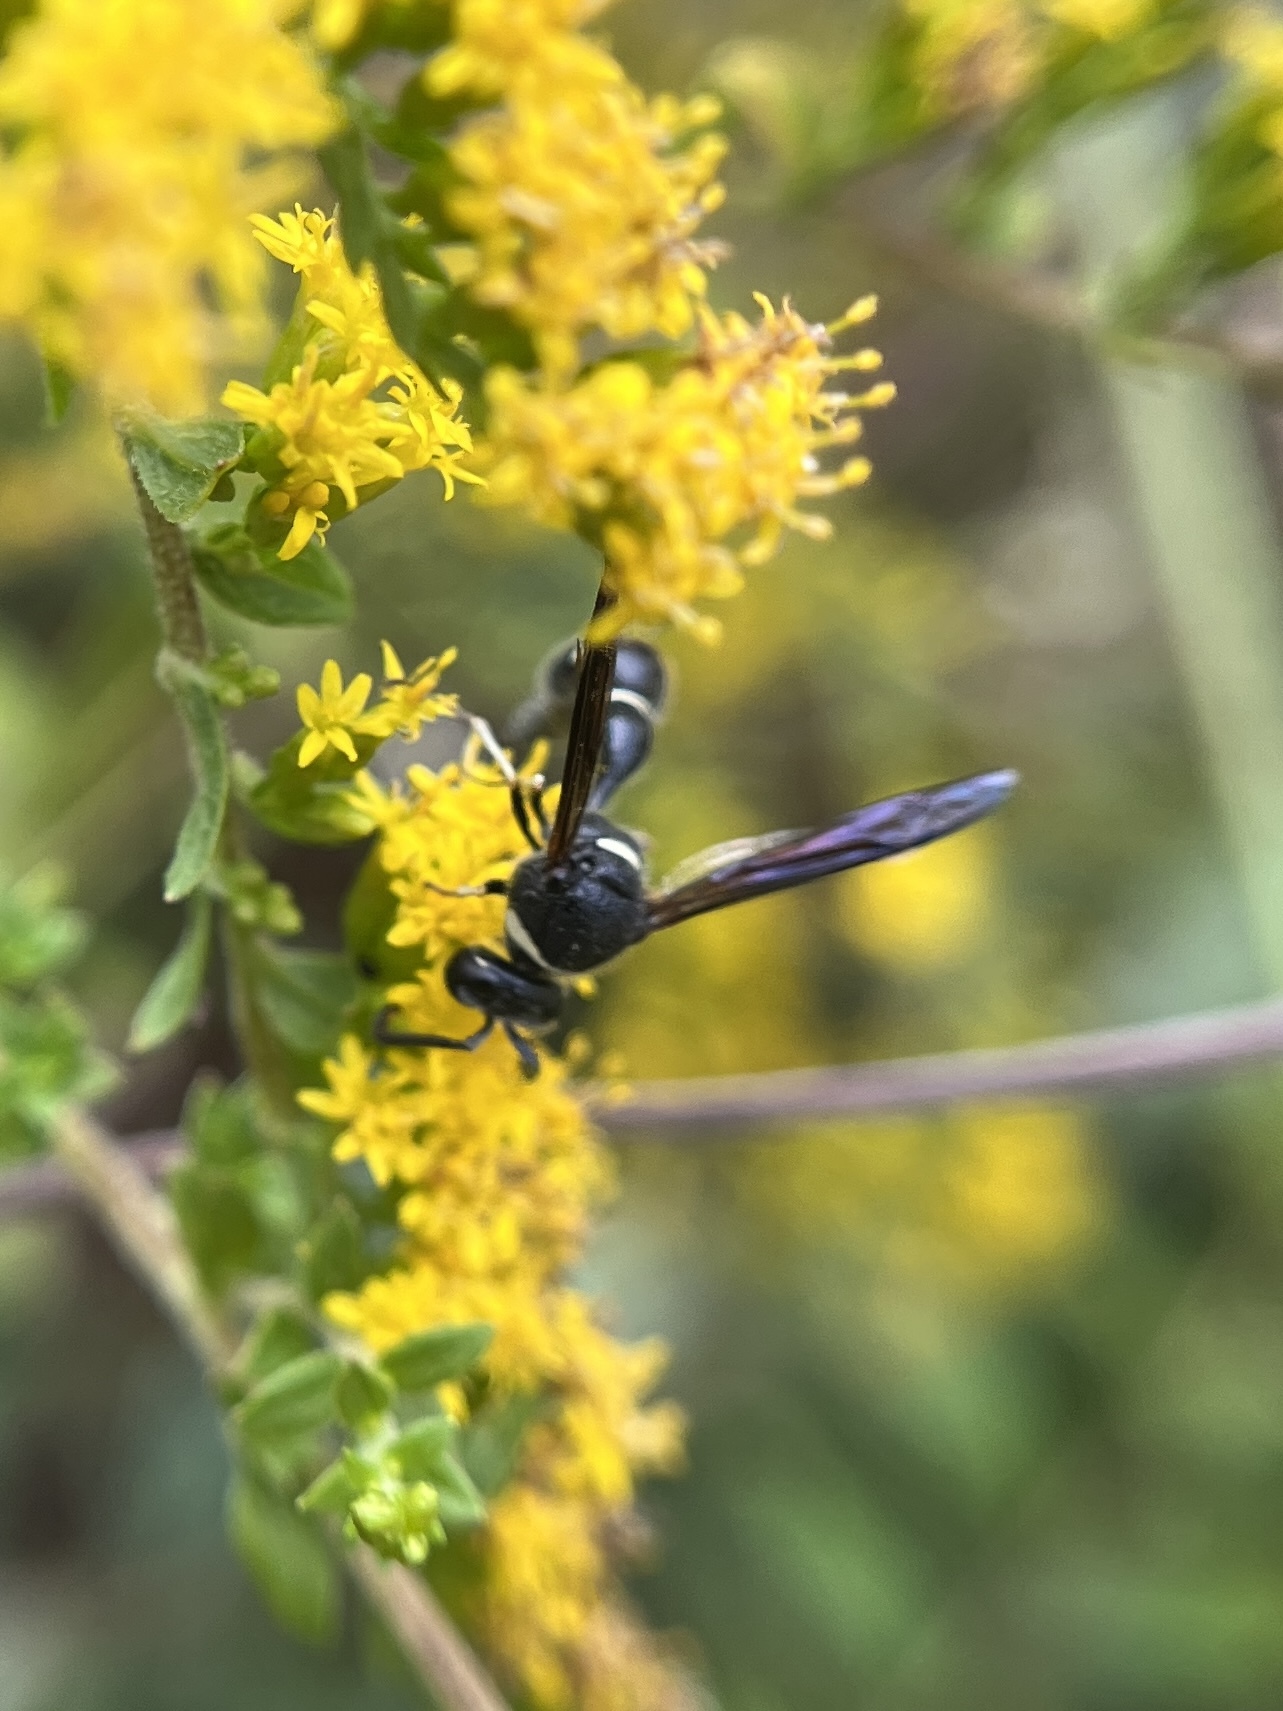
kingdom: Animalia
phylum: Arthropoda
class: Insecta
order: Hymenoptera
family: Vespidae
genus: Eumenes
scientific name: Eumenes fraternus
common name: Fraternal potter wasp
